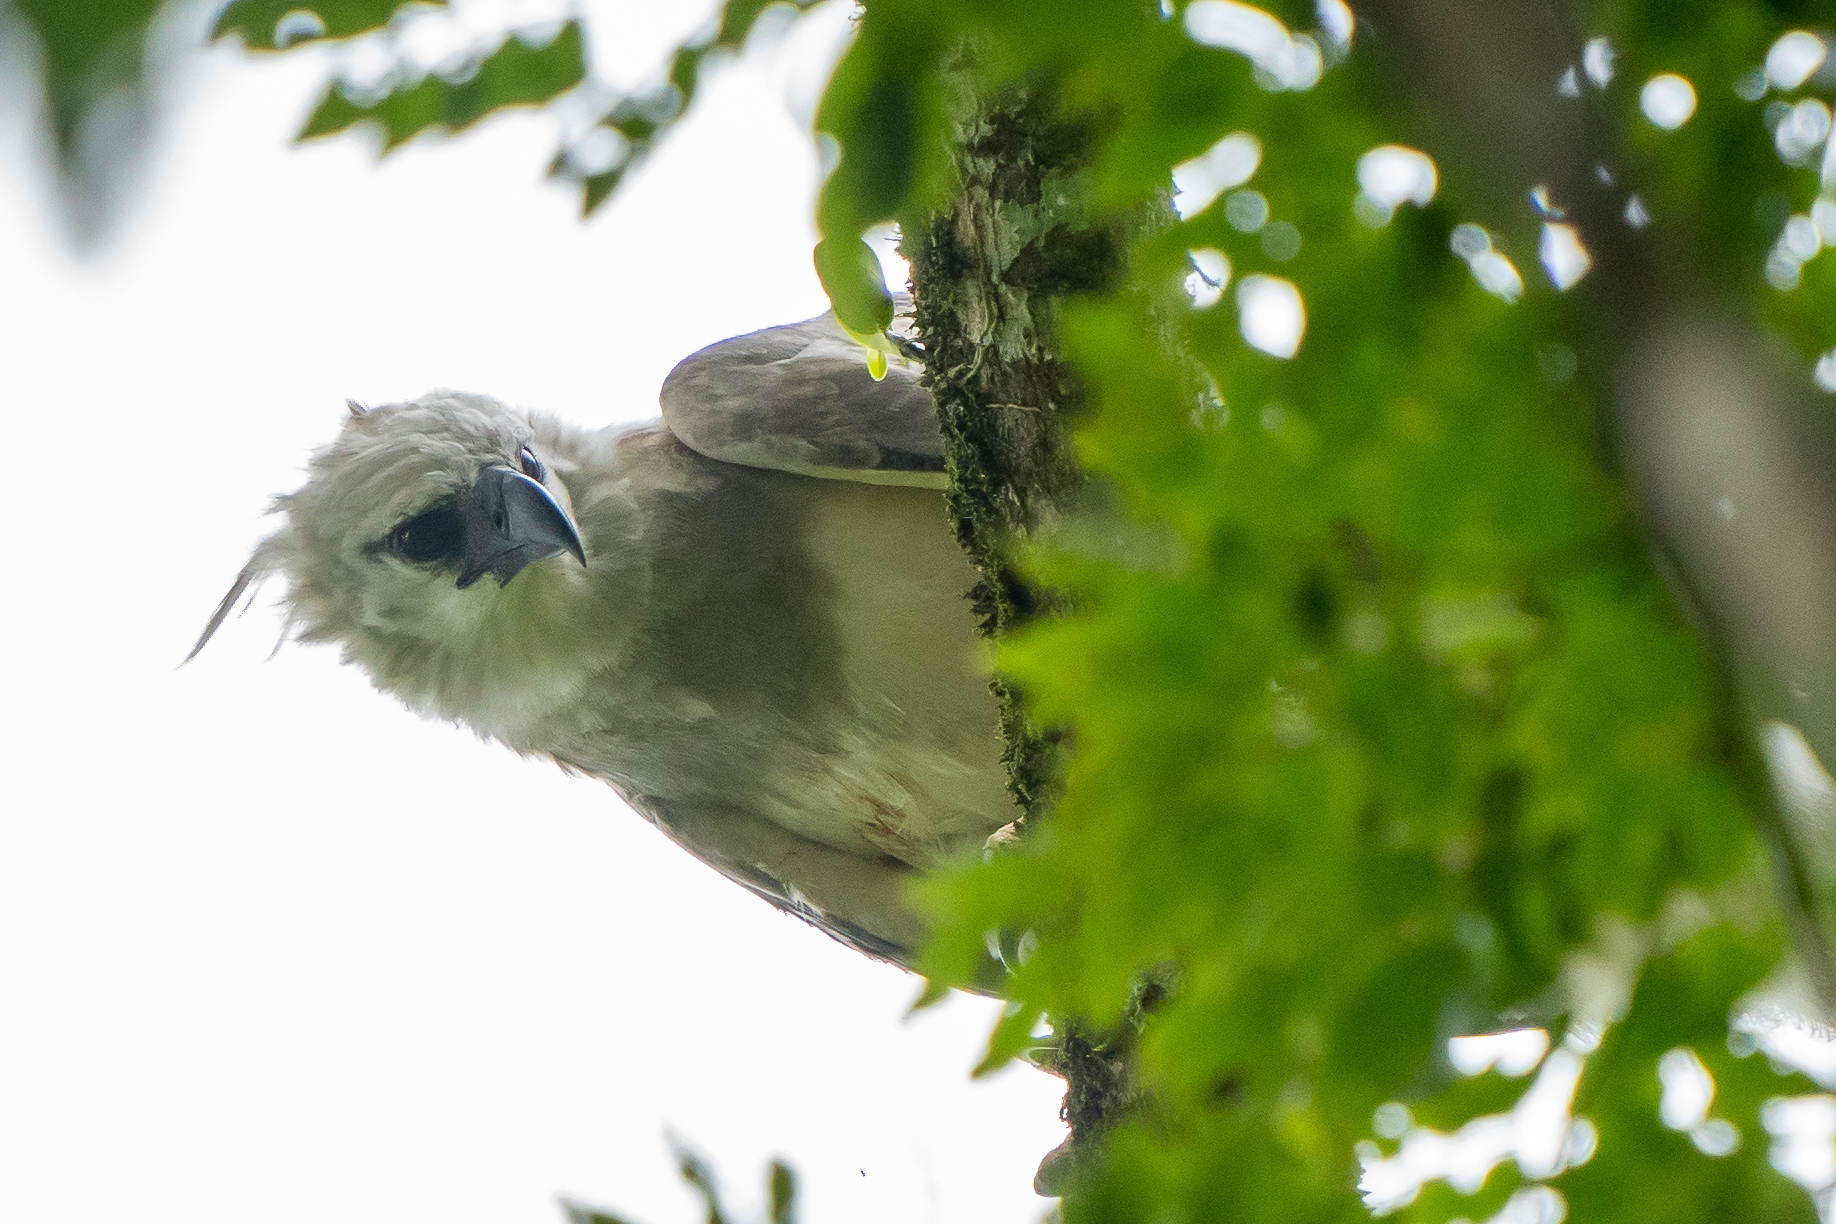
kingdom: Animalia
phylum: Chordata
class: Aves
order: Accipitriformes
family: Accipitridae
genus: Harpia
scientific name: Harpia harpyja
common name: Harpy eagle
